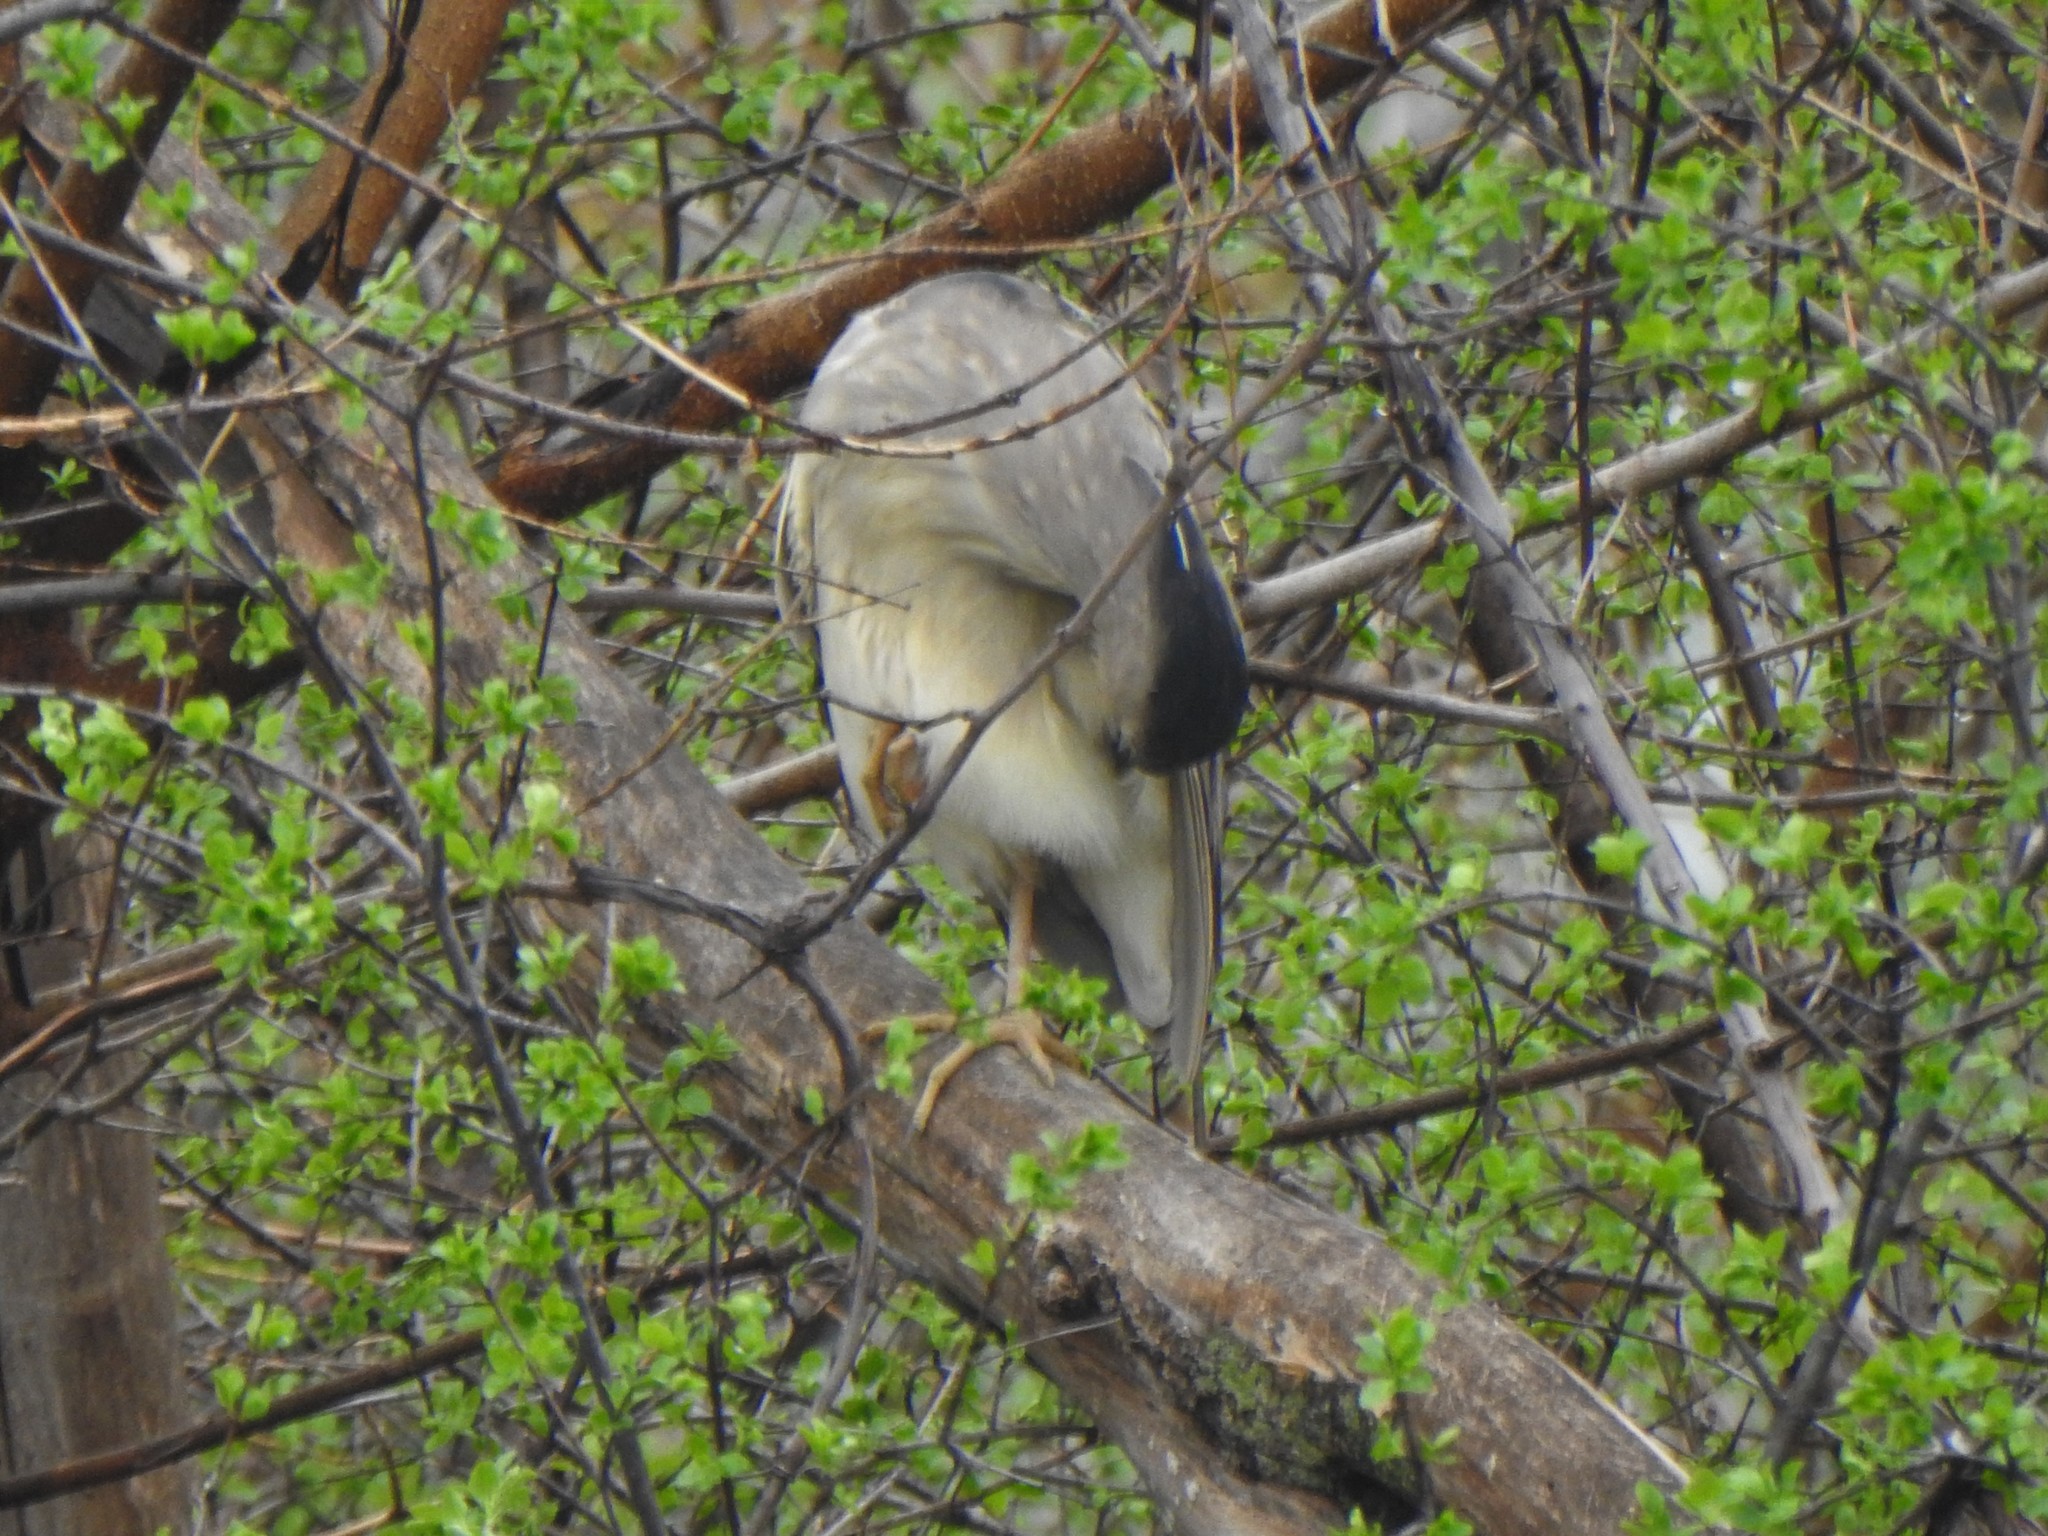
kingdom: Animalia
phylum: Chordata
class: Aves
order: Pelecaniformes
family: Ardeidae
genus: Nycticorax
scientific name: Nycticorax nycticorax
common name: Black-crowned night heron
